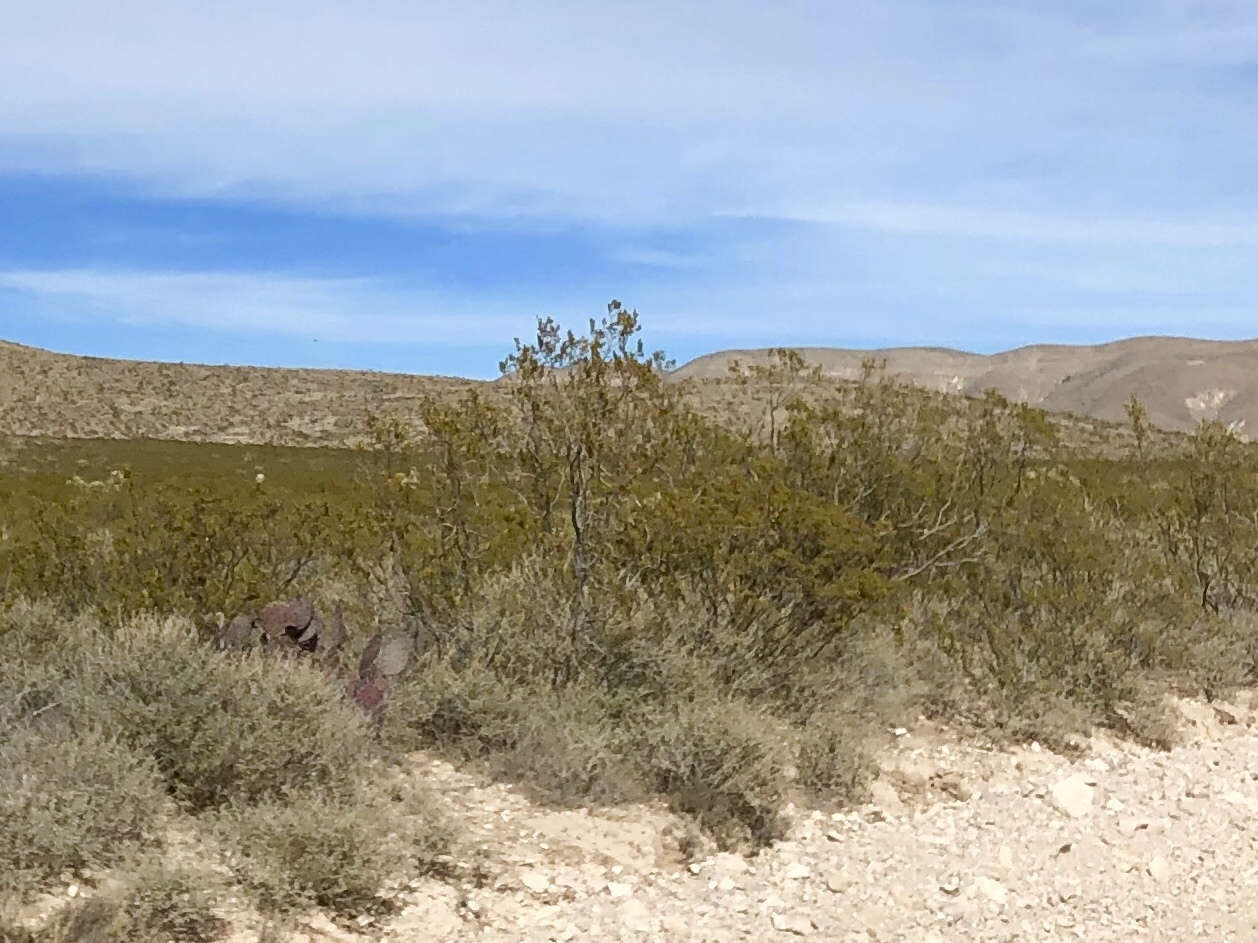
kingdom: Plantae
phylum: Tracheophyta
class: Magnoliopsida
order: Zygophyllales
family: Zygophyllaceae
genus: Larrea
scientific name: Larrea tridentata
